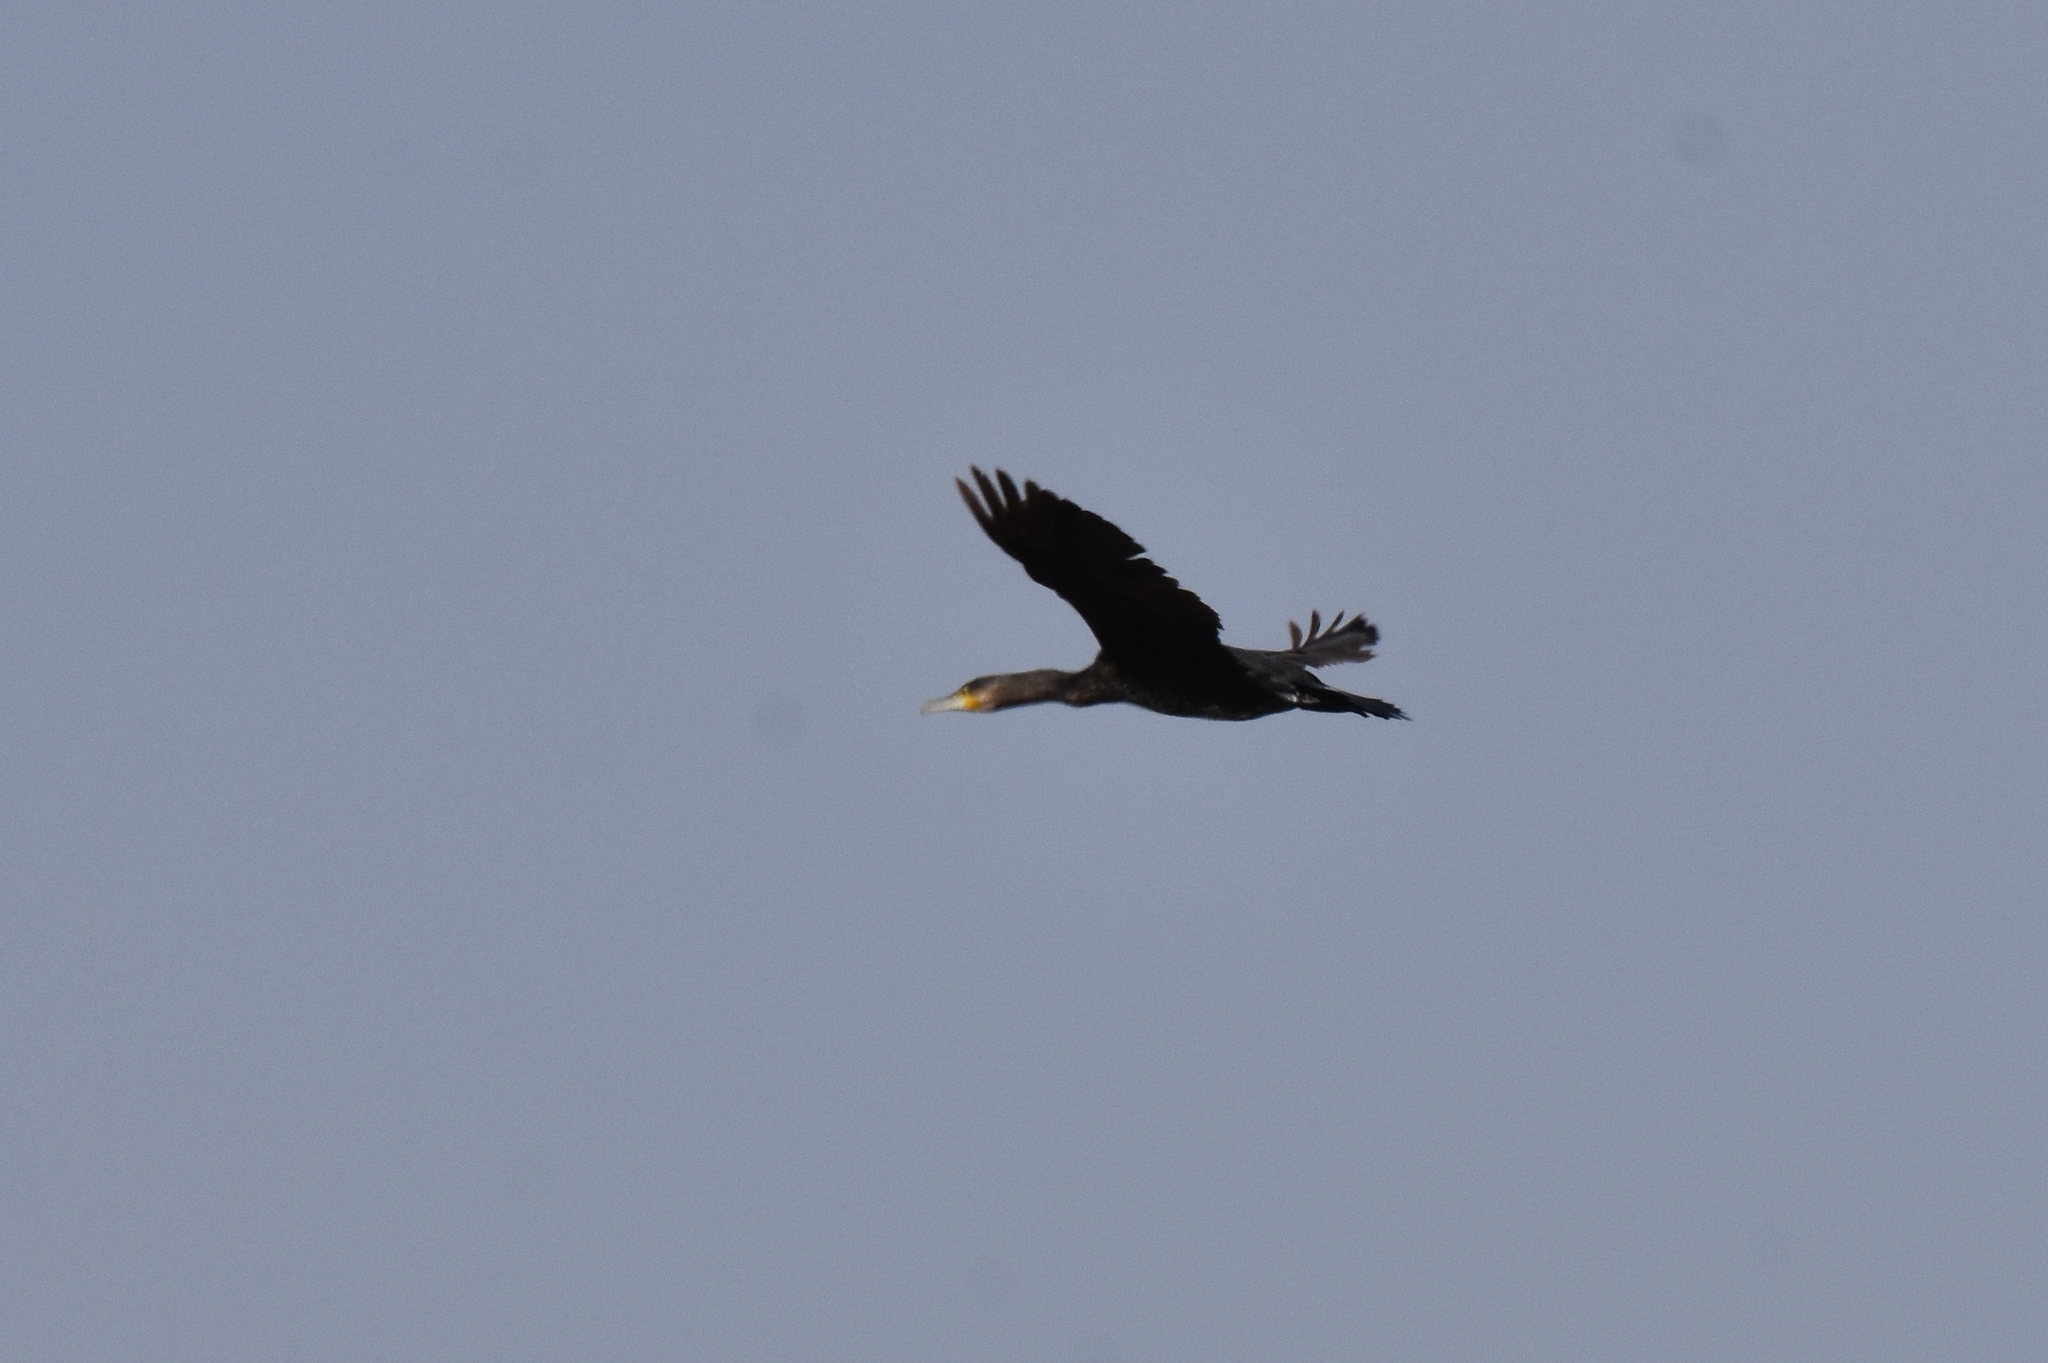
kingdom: Animalia
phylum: Chordata
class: Aves
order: Suliformes
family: Phalacrocoracidae
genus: Phalacrocorax
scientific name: Phalacrocorax carbo
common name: Great cormorant
